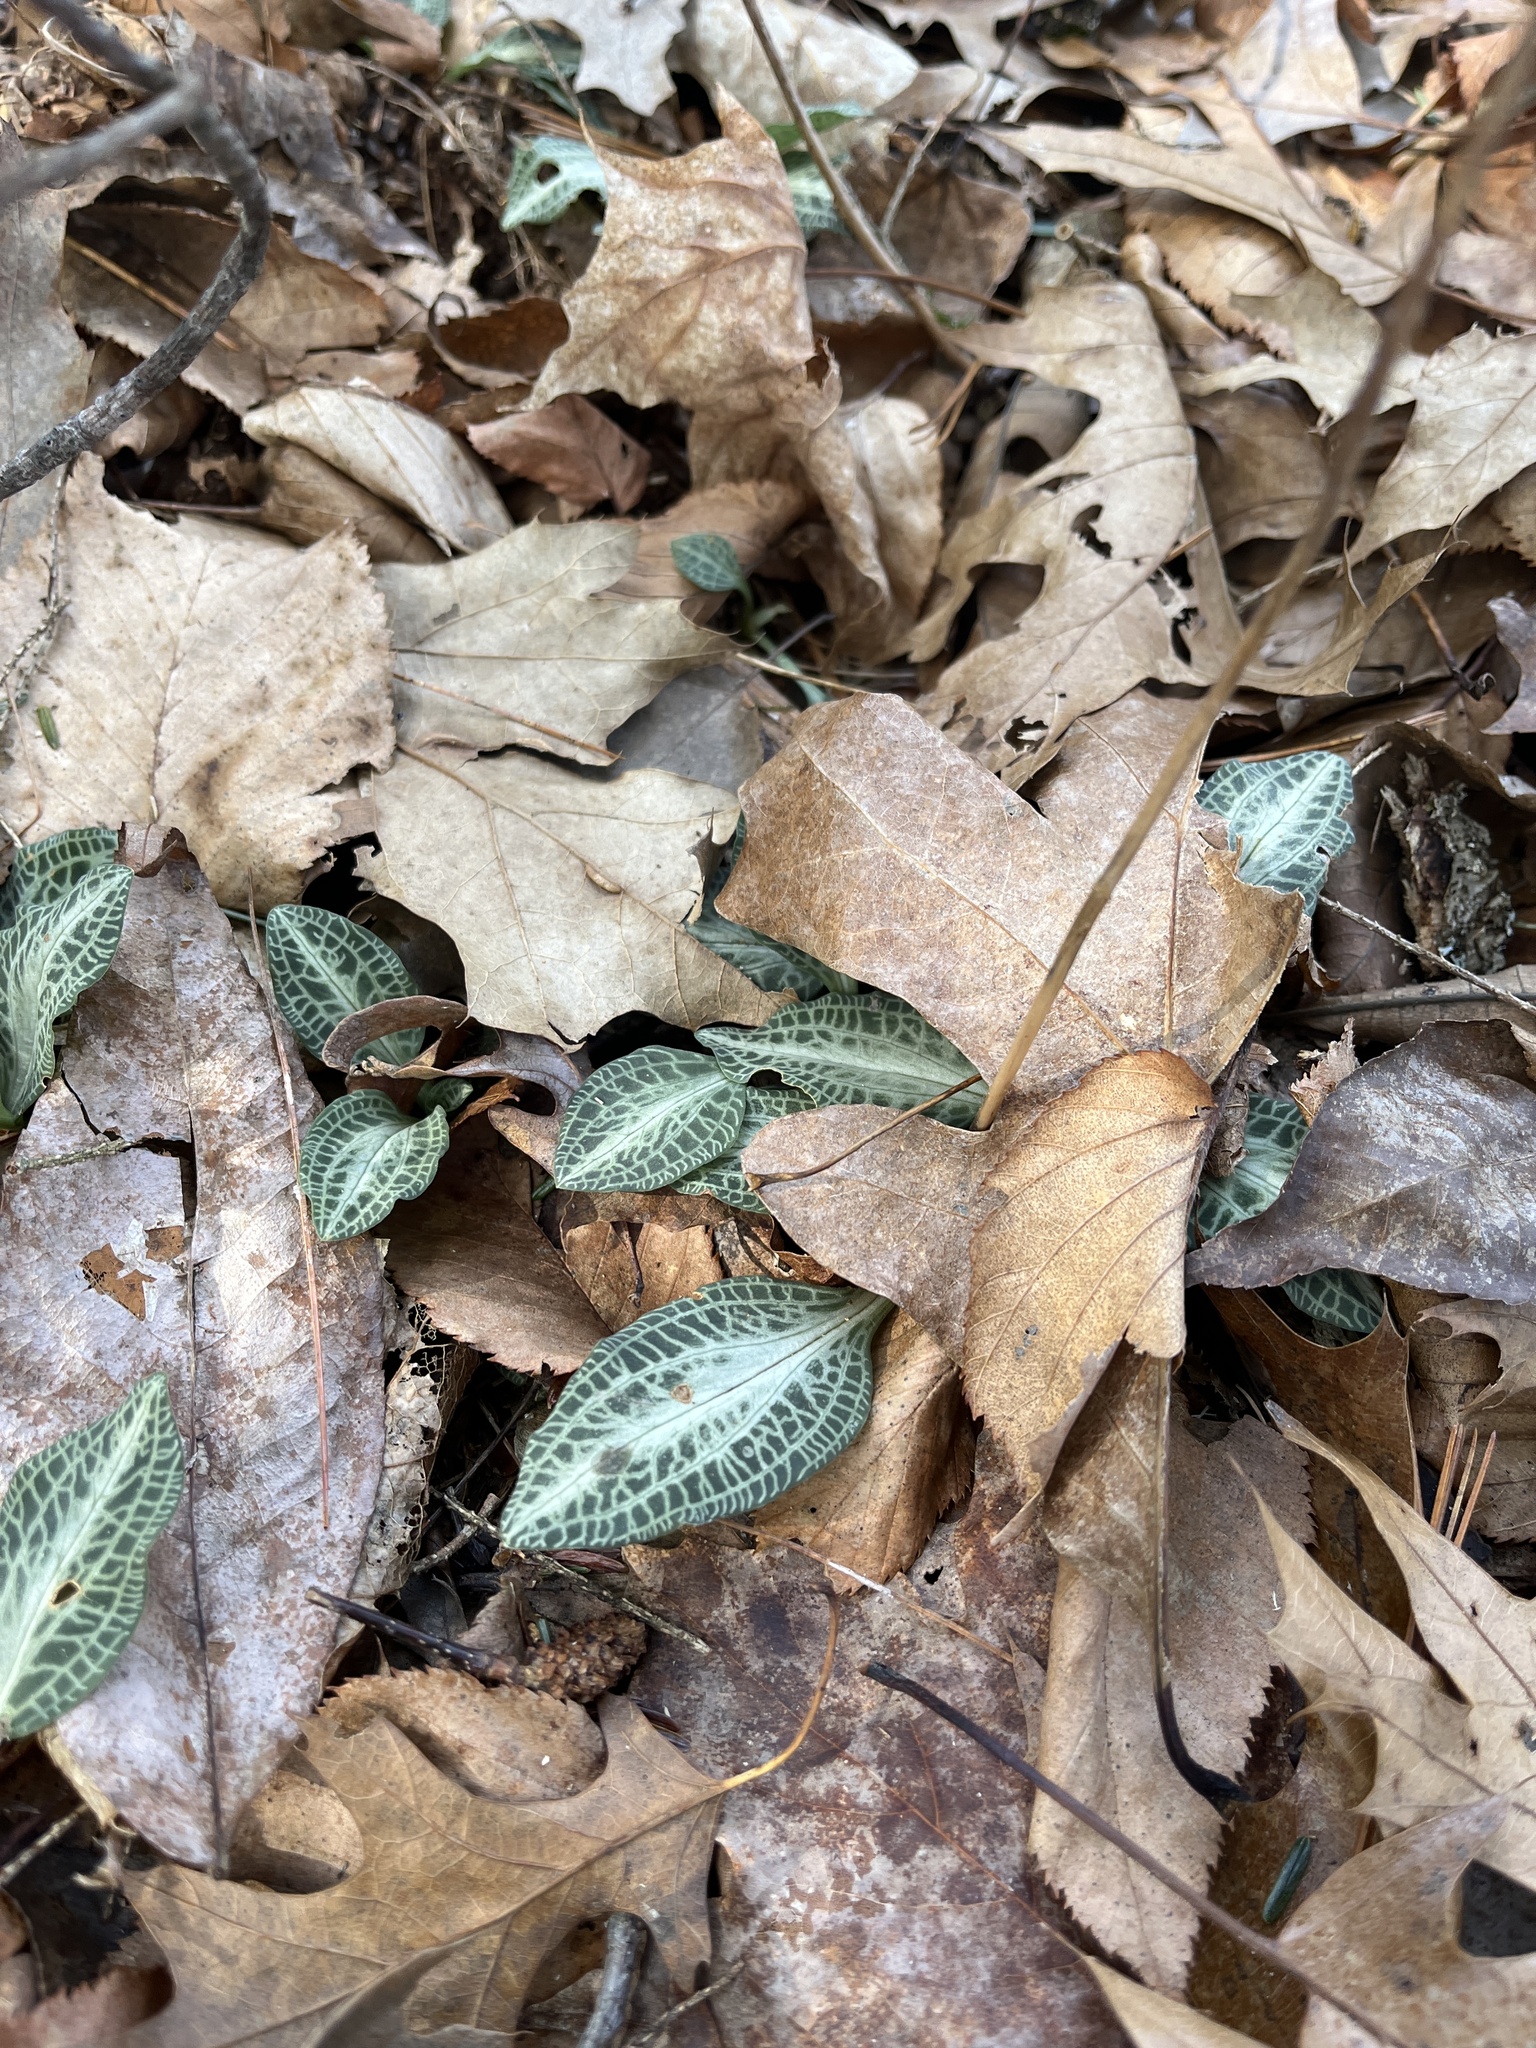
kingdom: Plantae
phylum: Tracheophyta
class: Liliopsida
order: Asparagales
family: Orchidaceae
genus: Goodyera
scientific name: Goodyera pubescens
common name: Downy rattlesnake-plantain
